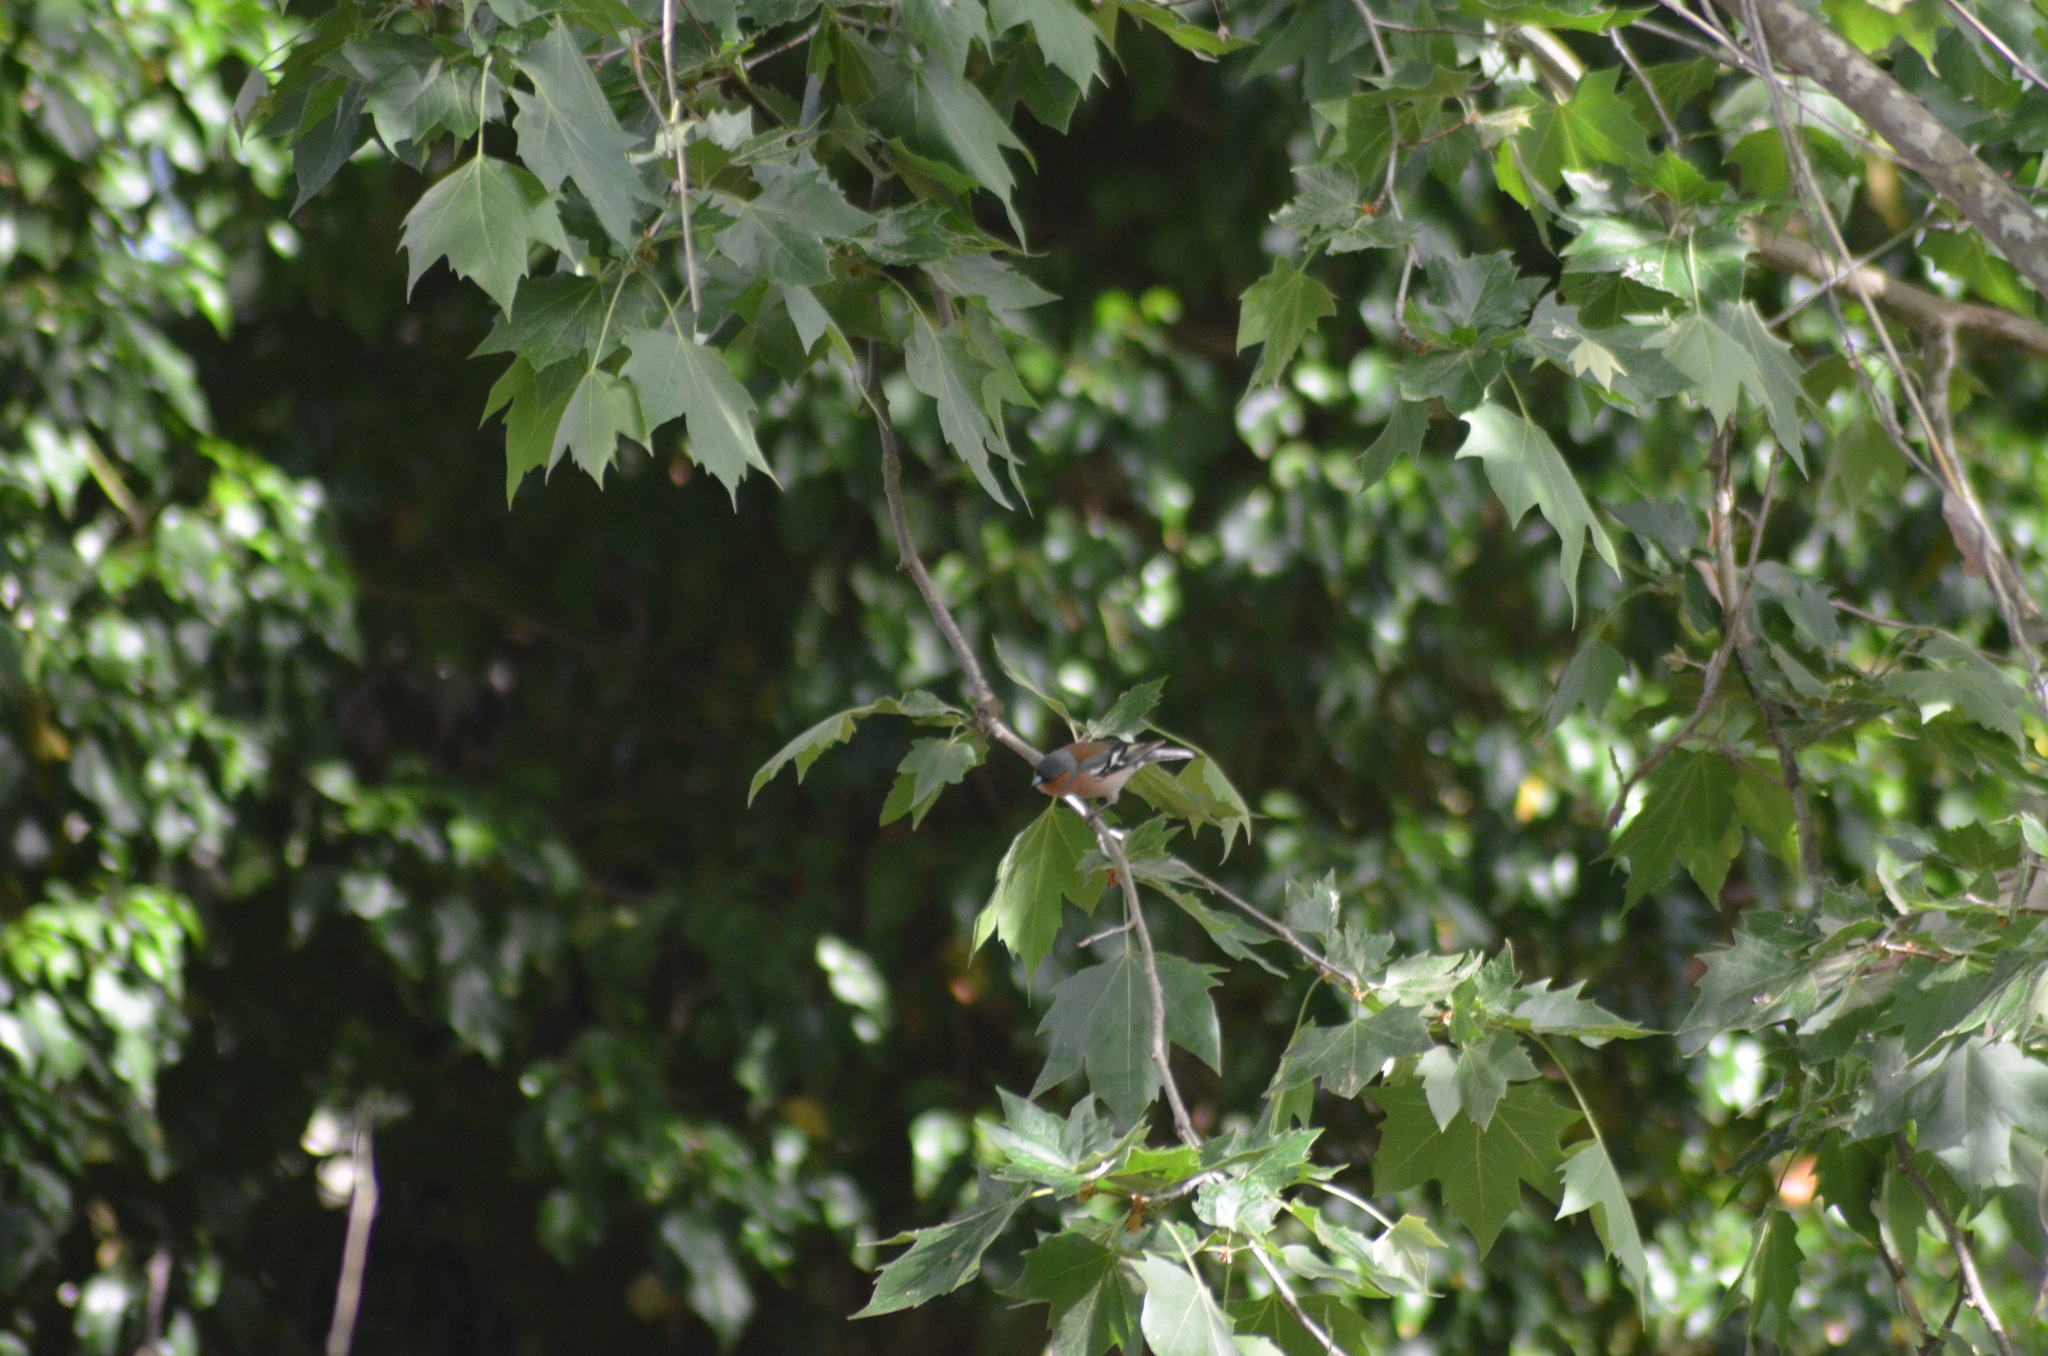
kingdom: Animalia
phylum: Chordata
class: Aves
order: Passeriformes
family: Fringillidae
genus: Fringilla
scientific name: Fringilla coelebs
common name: Common chaffinch
